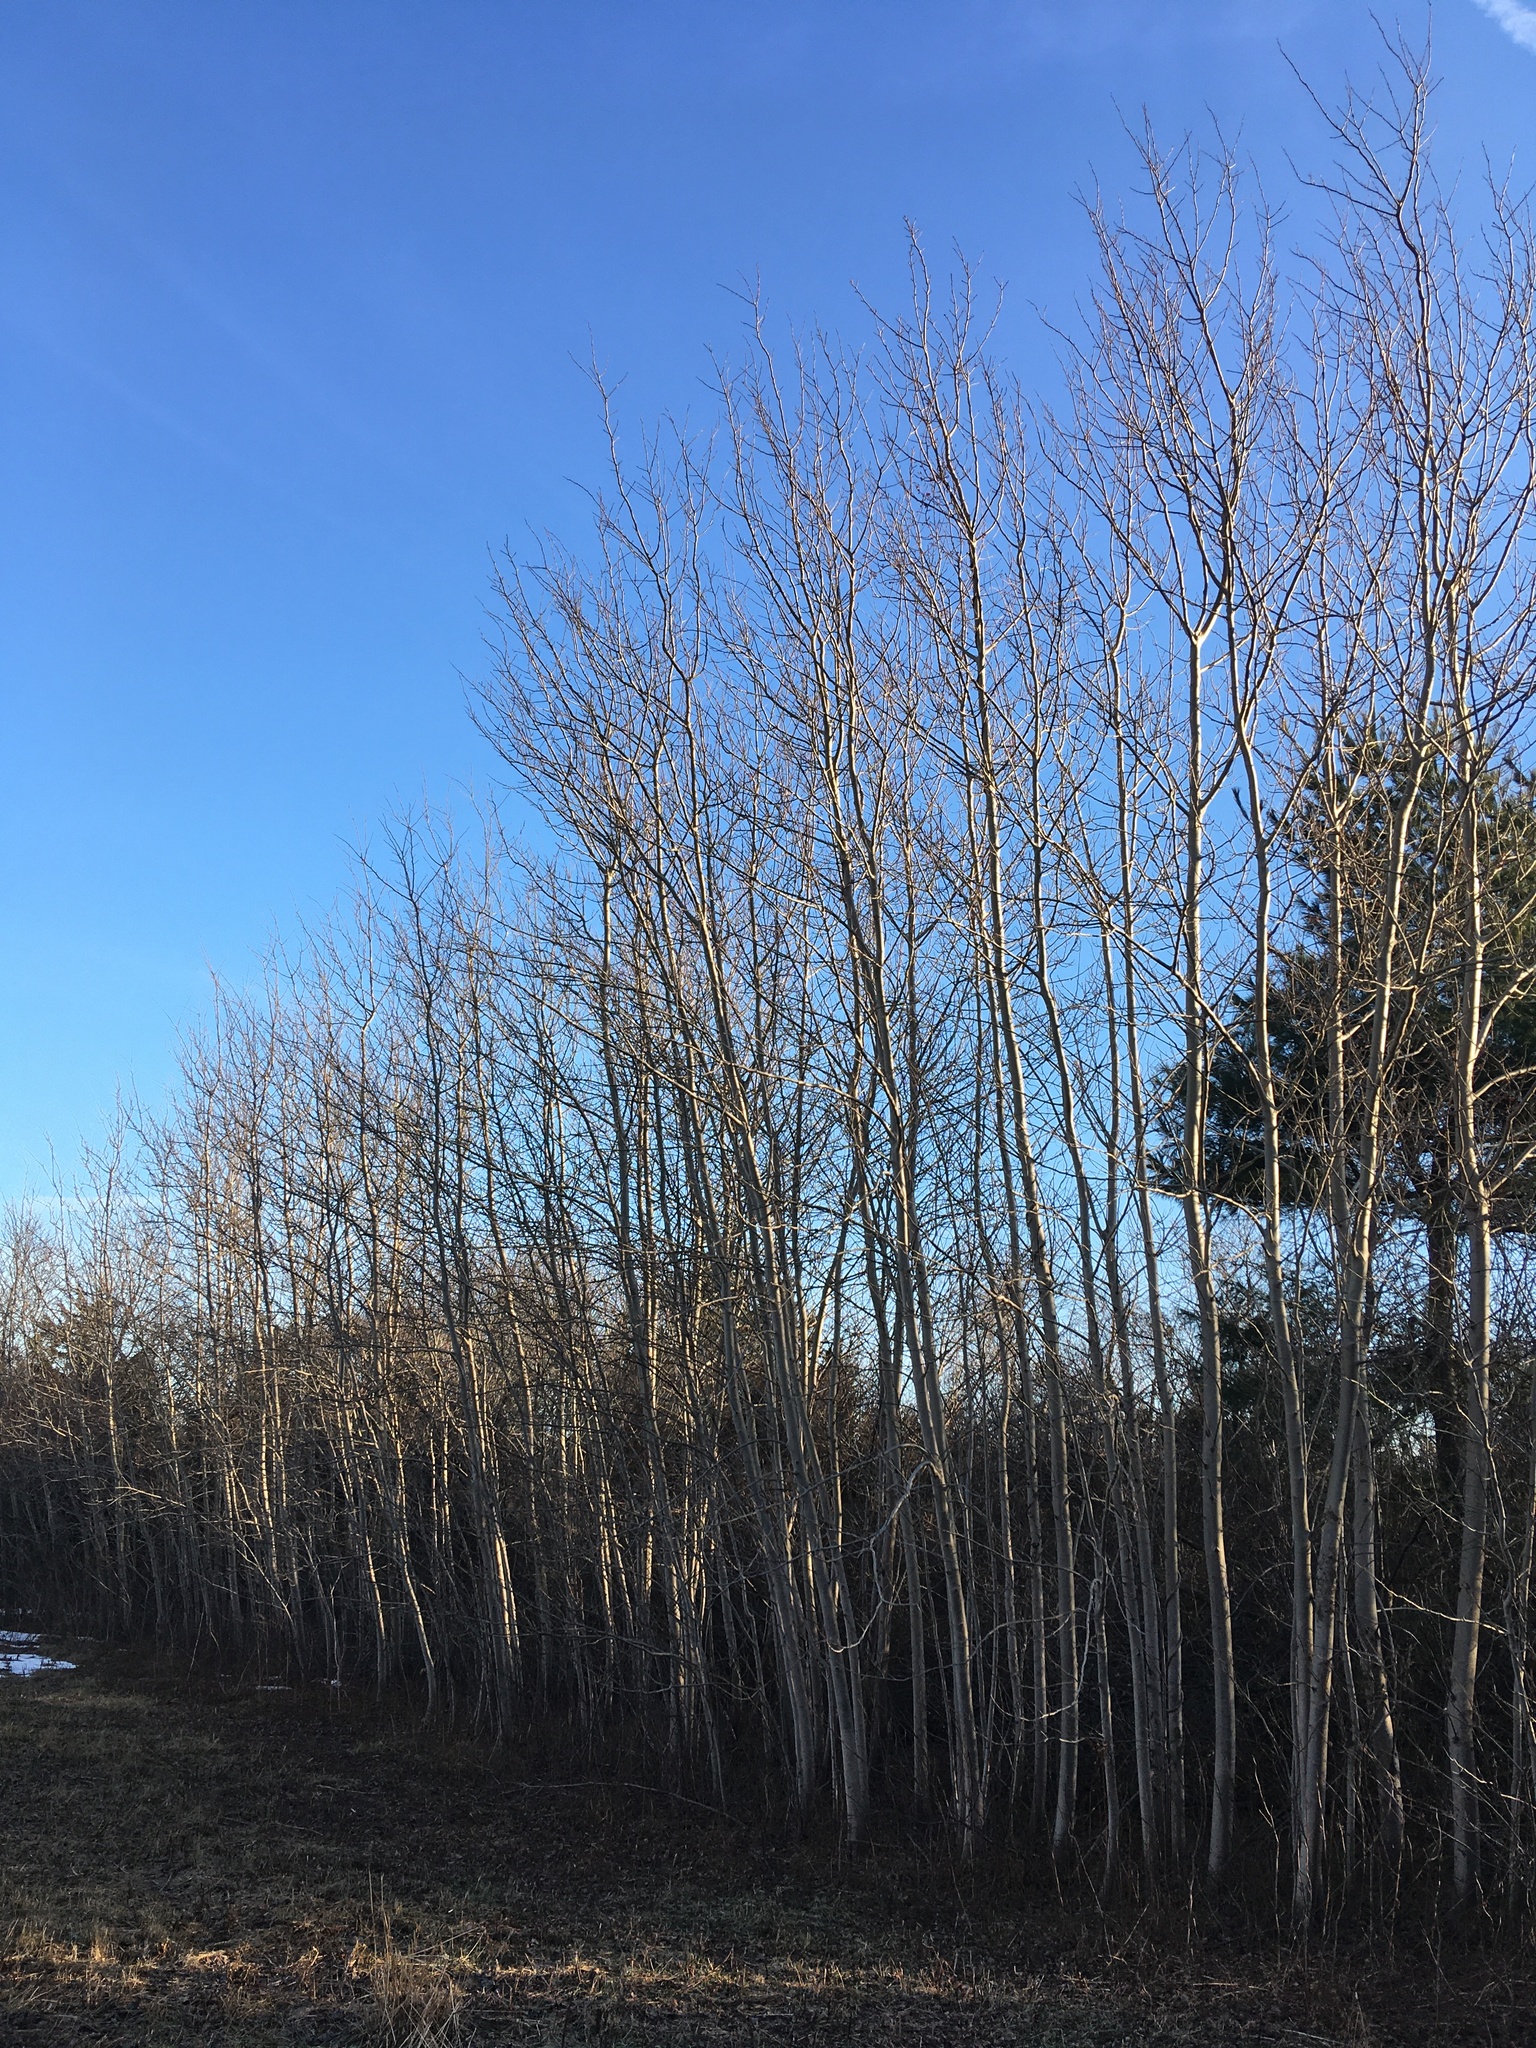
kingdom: Plantae
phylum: Tracheophyta
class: Magnoliopsida
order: Malpighiales
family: Salicaceae
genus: Populus
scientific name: Populus tremuloides
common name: Quaking aspen
